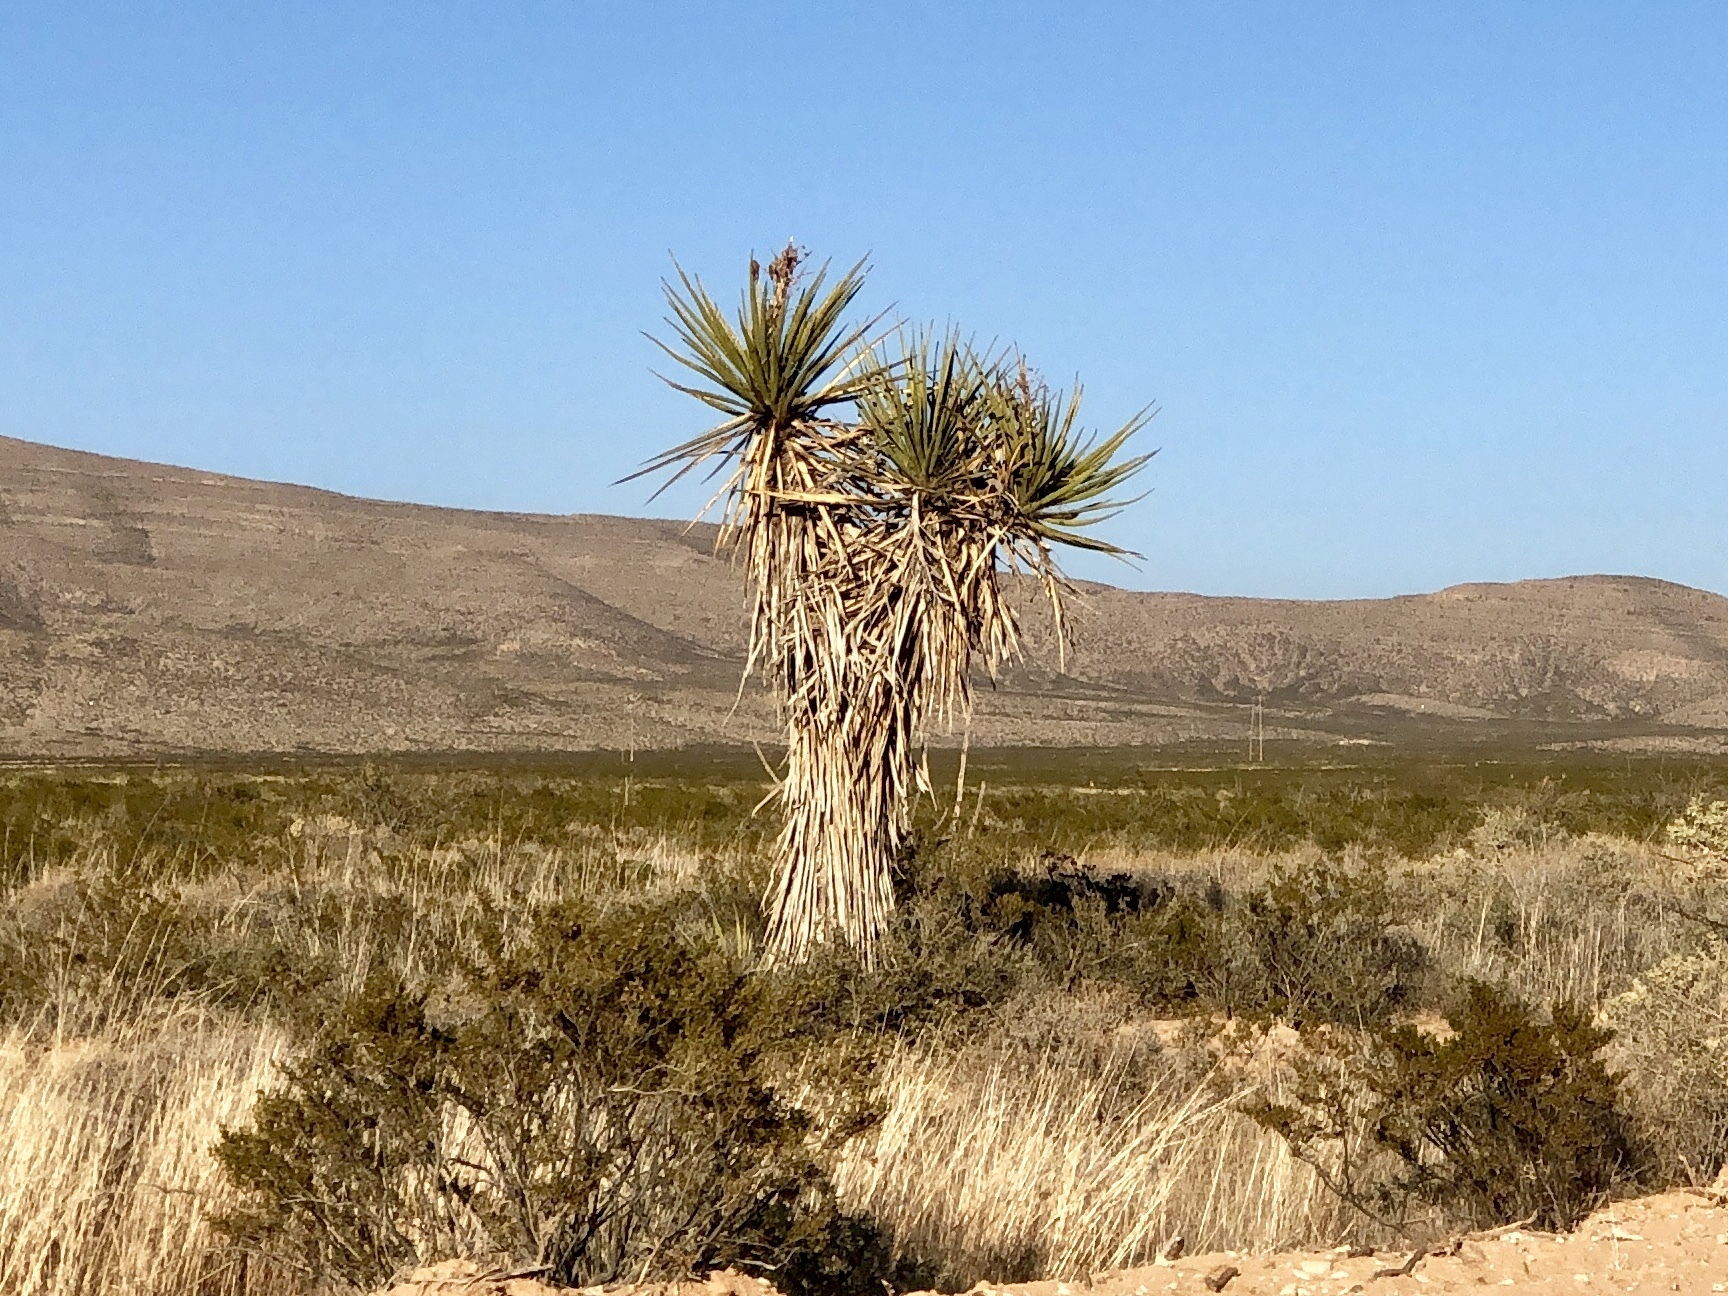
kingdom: Plantae
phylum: Tracheophyta
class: Liliopsida
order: Asparagales
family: Asparagaceae
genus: Yucca
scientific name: Yucca treculiana
